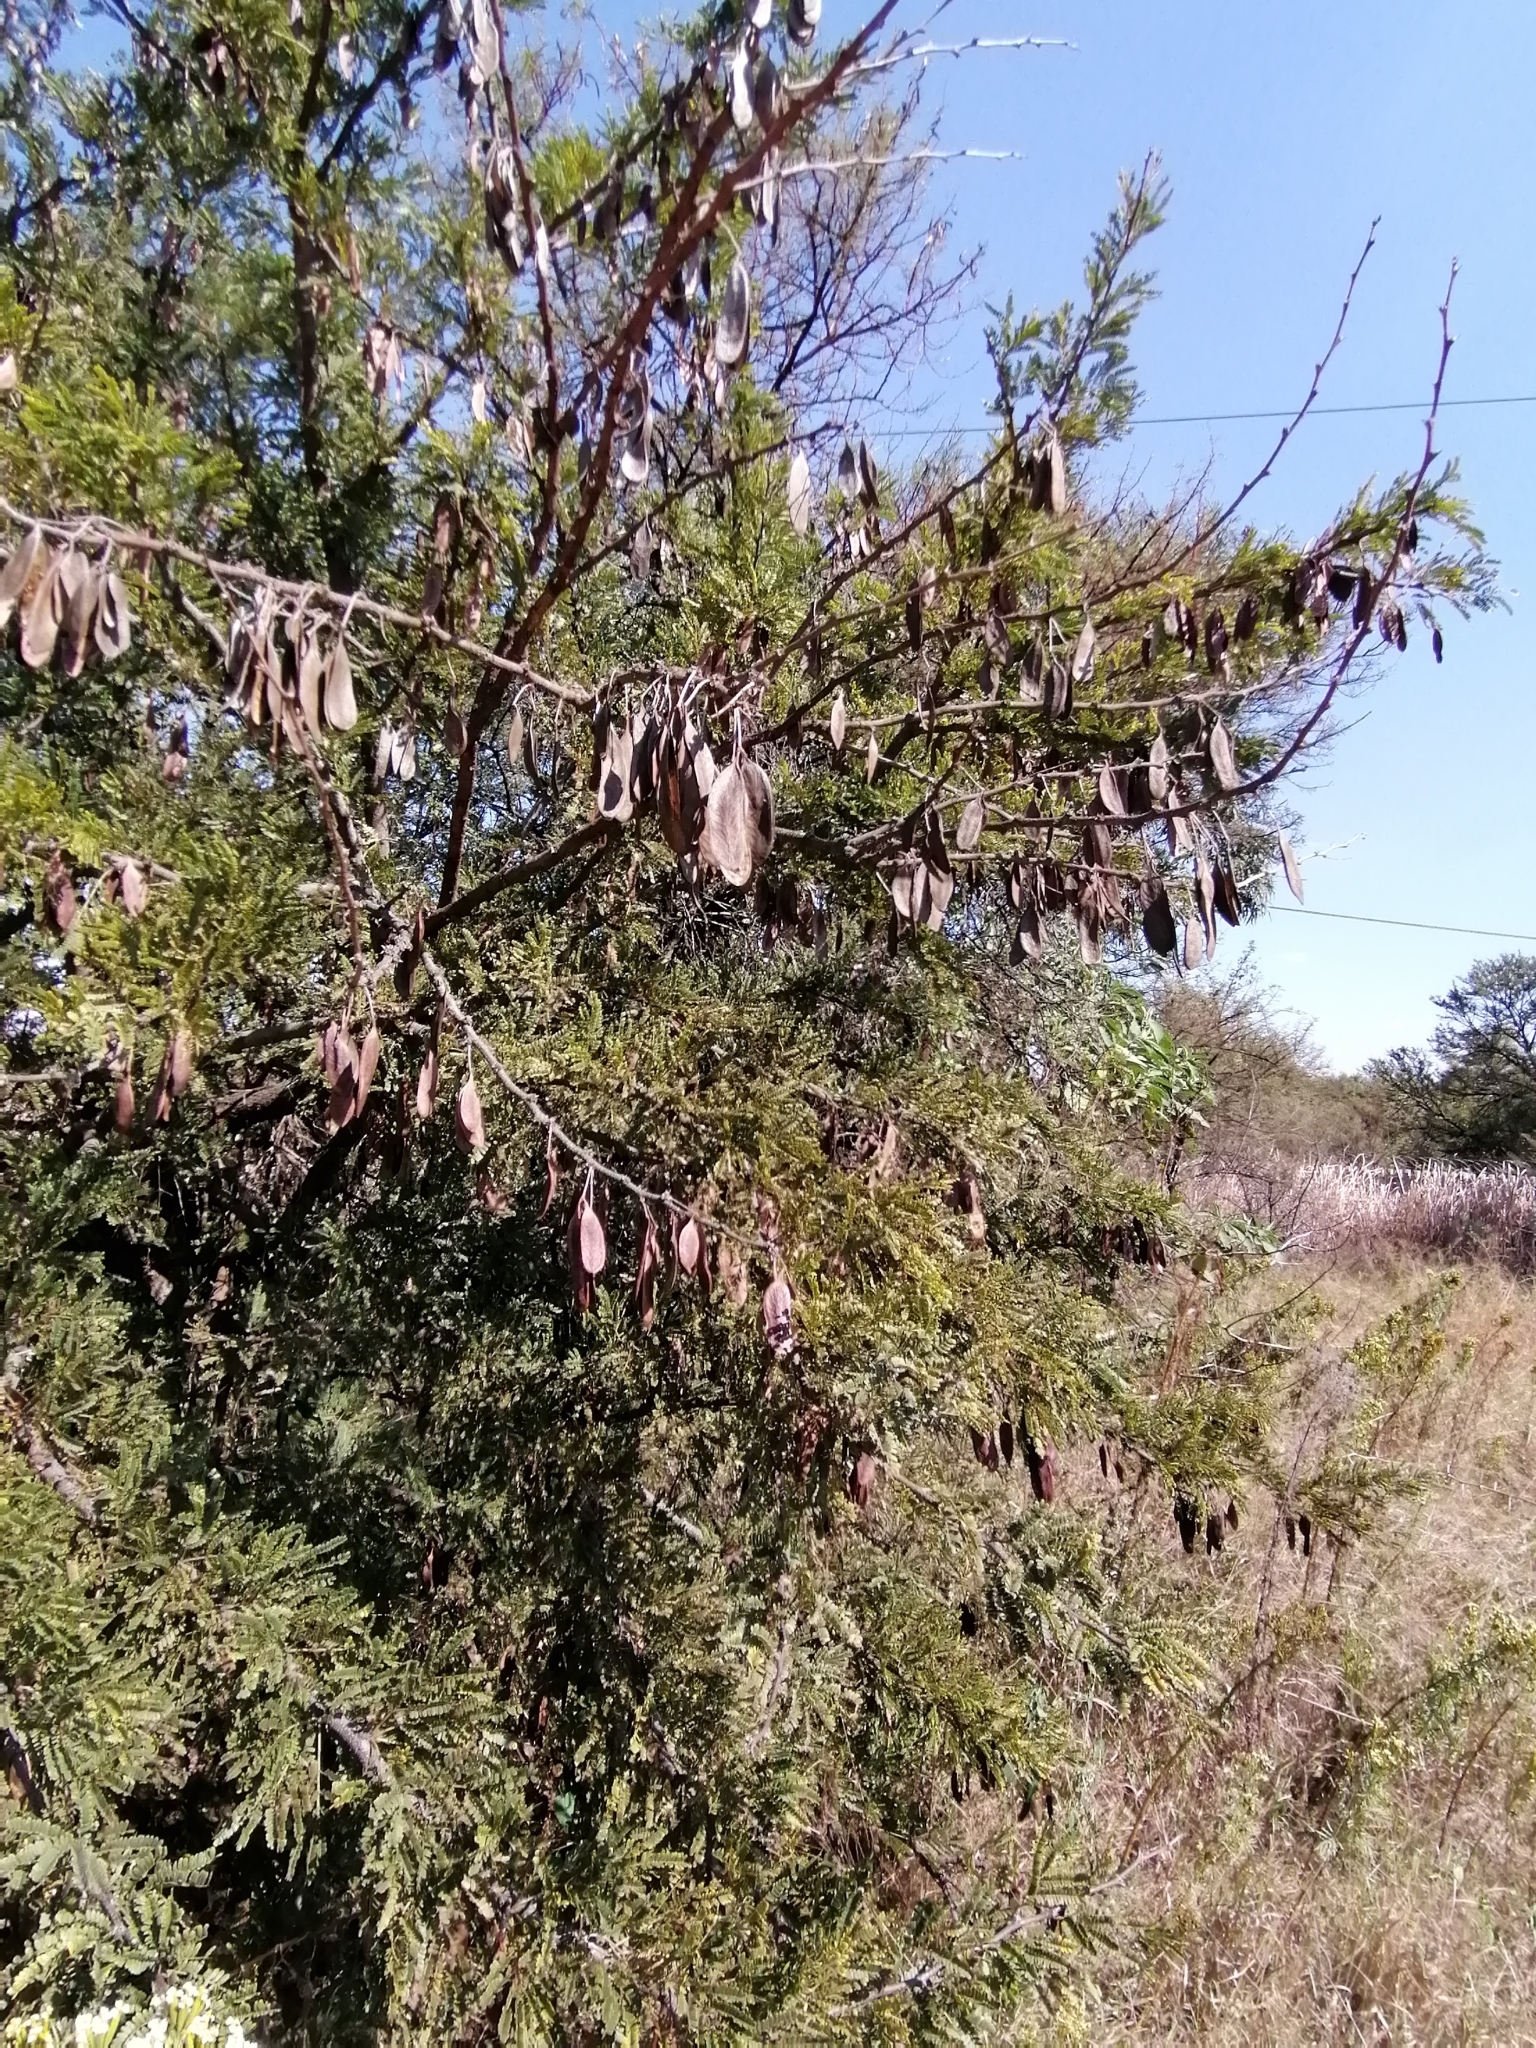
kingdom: Plantae
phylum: Tracheophyta
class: Magnoliopsida
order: Fabales
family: Fabaceae
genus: Vachellia
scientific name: Vachellia robusta
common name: Ankle thorn
